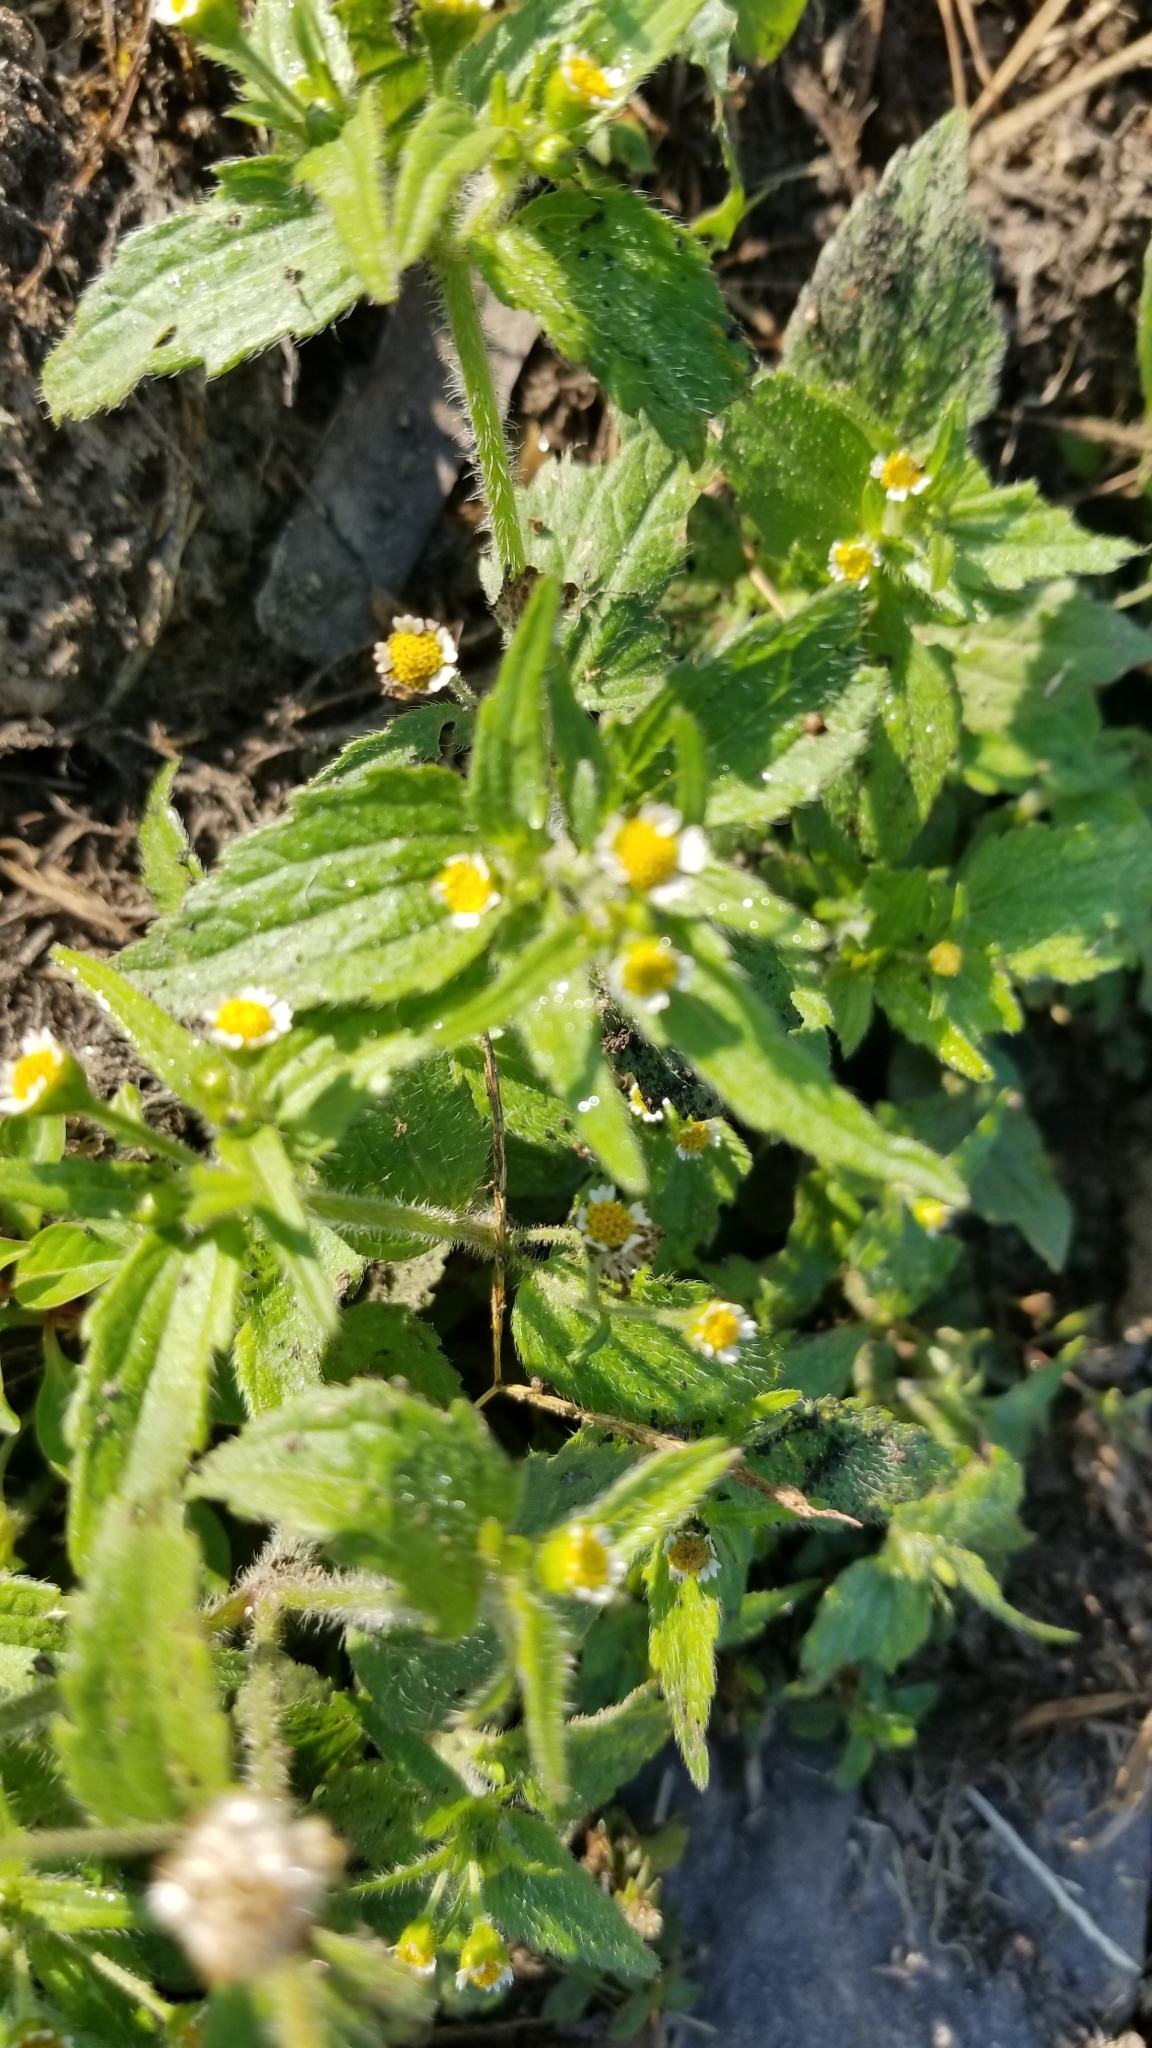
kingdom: Plantae
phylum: Tracheophyta
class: Magnoliopsida
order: Asterales
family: Asteraceae
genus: Galinsoga
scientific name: Galinsoga quadriradiata
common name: Shaggy soldier
